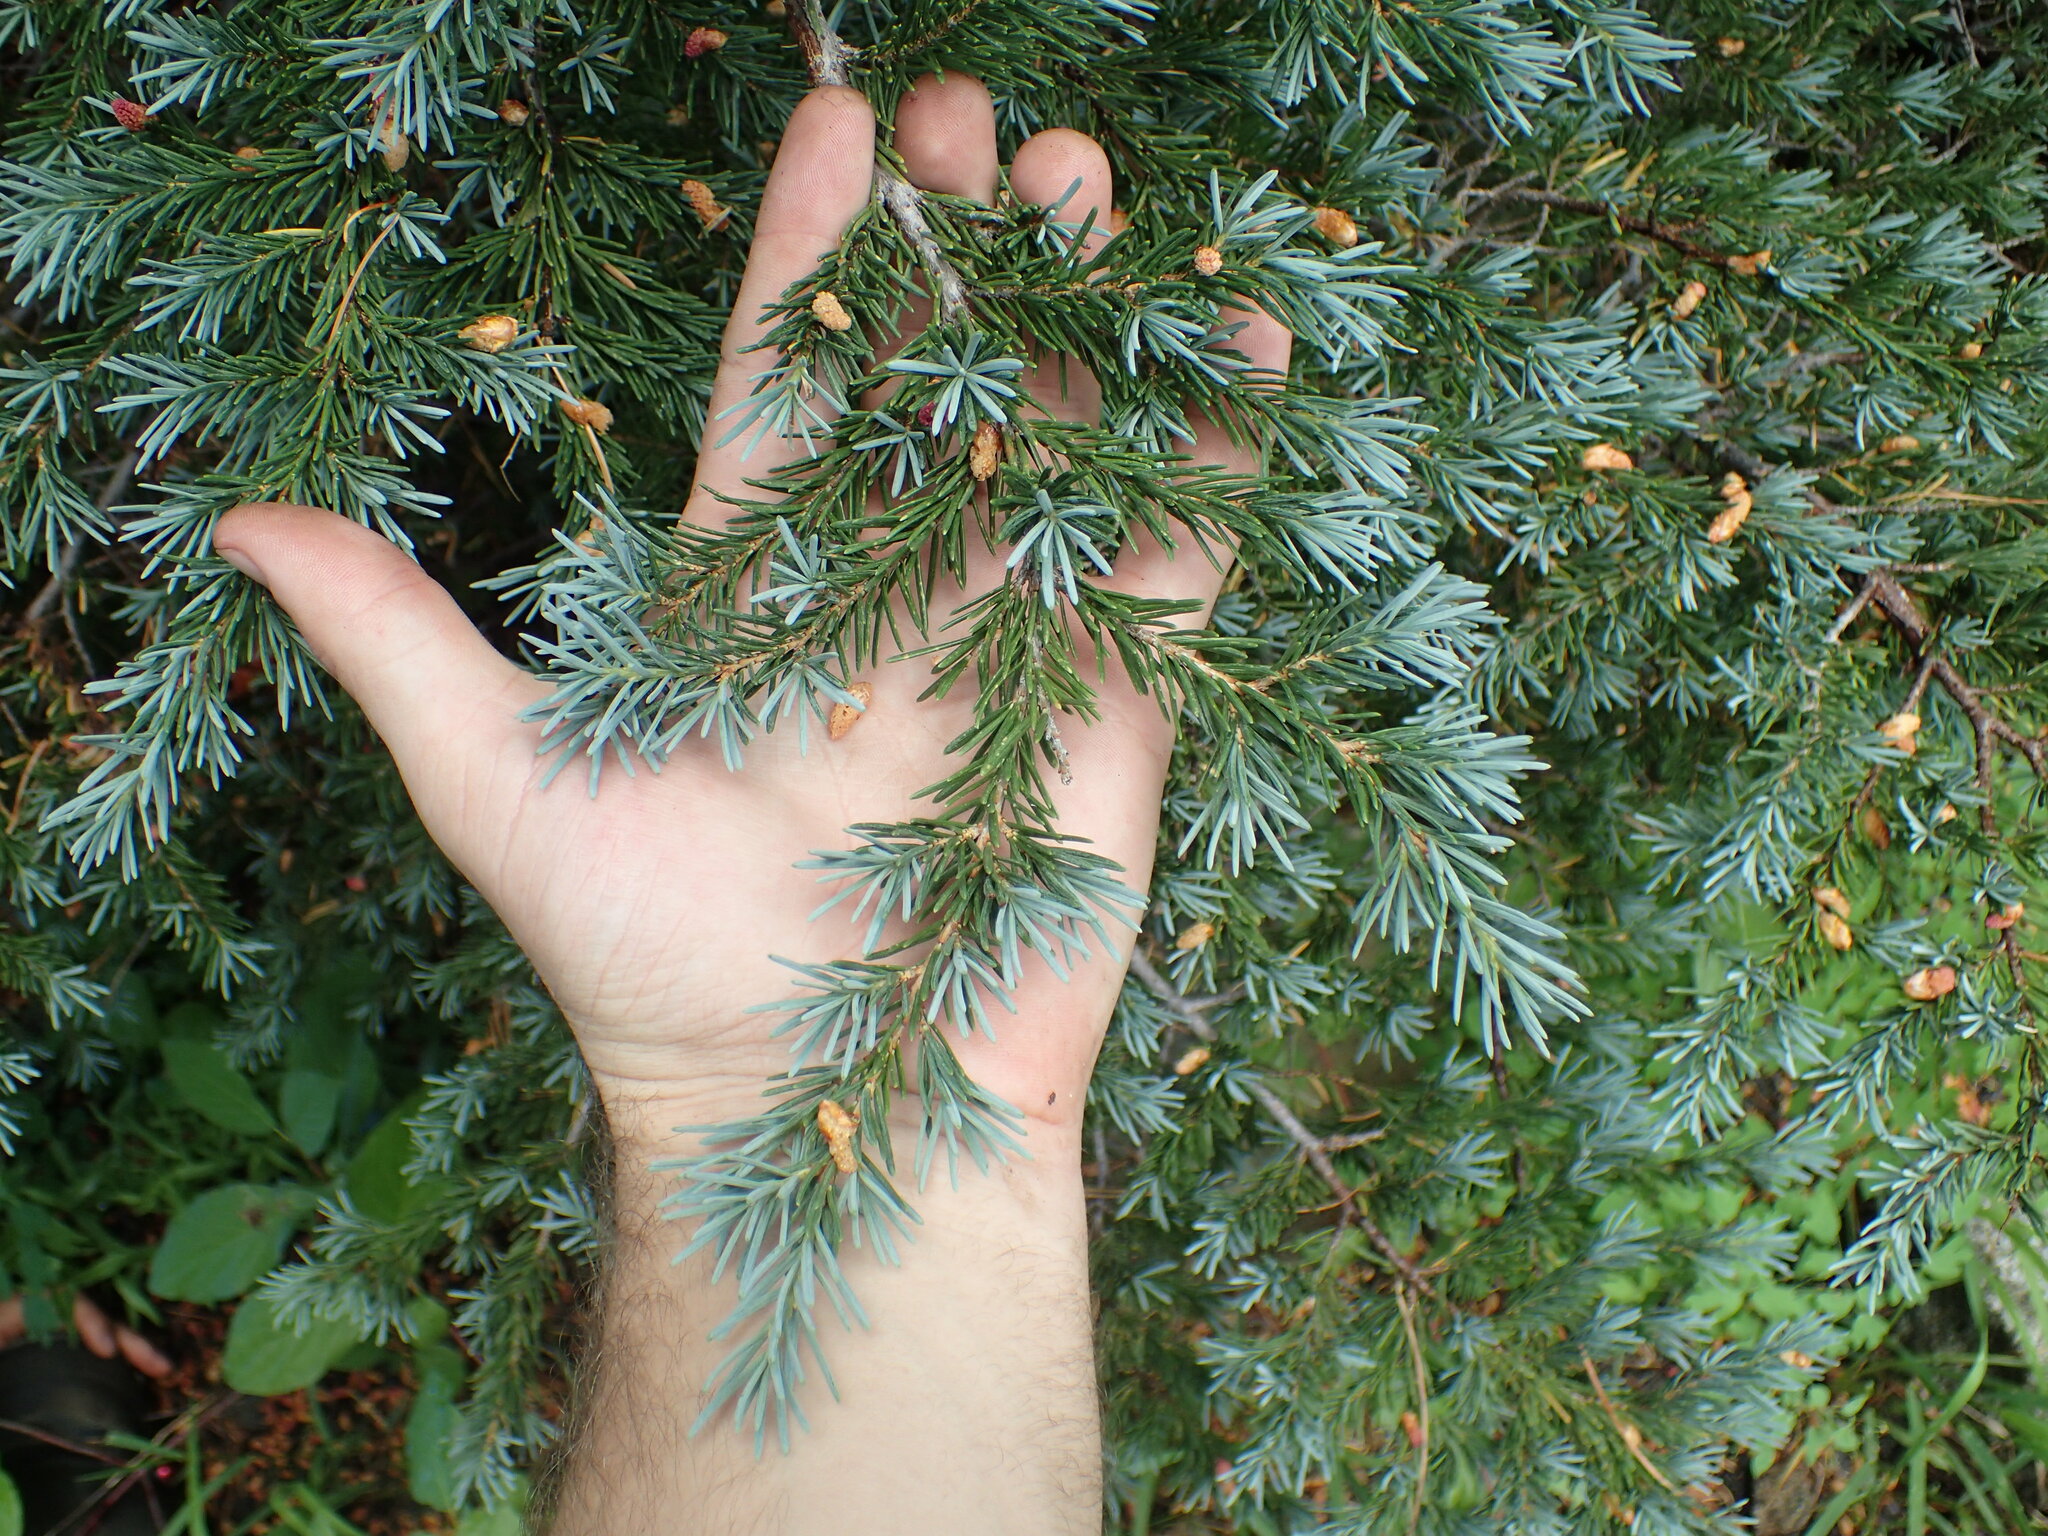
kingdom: Plantae
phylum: Tracheophyta
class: Pinopsida
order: Pinales
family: Pinaceae
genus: Tsuga
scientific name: Tsuga mertensiana
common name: Mountain hemlock
